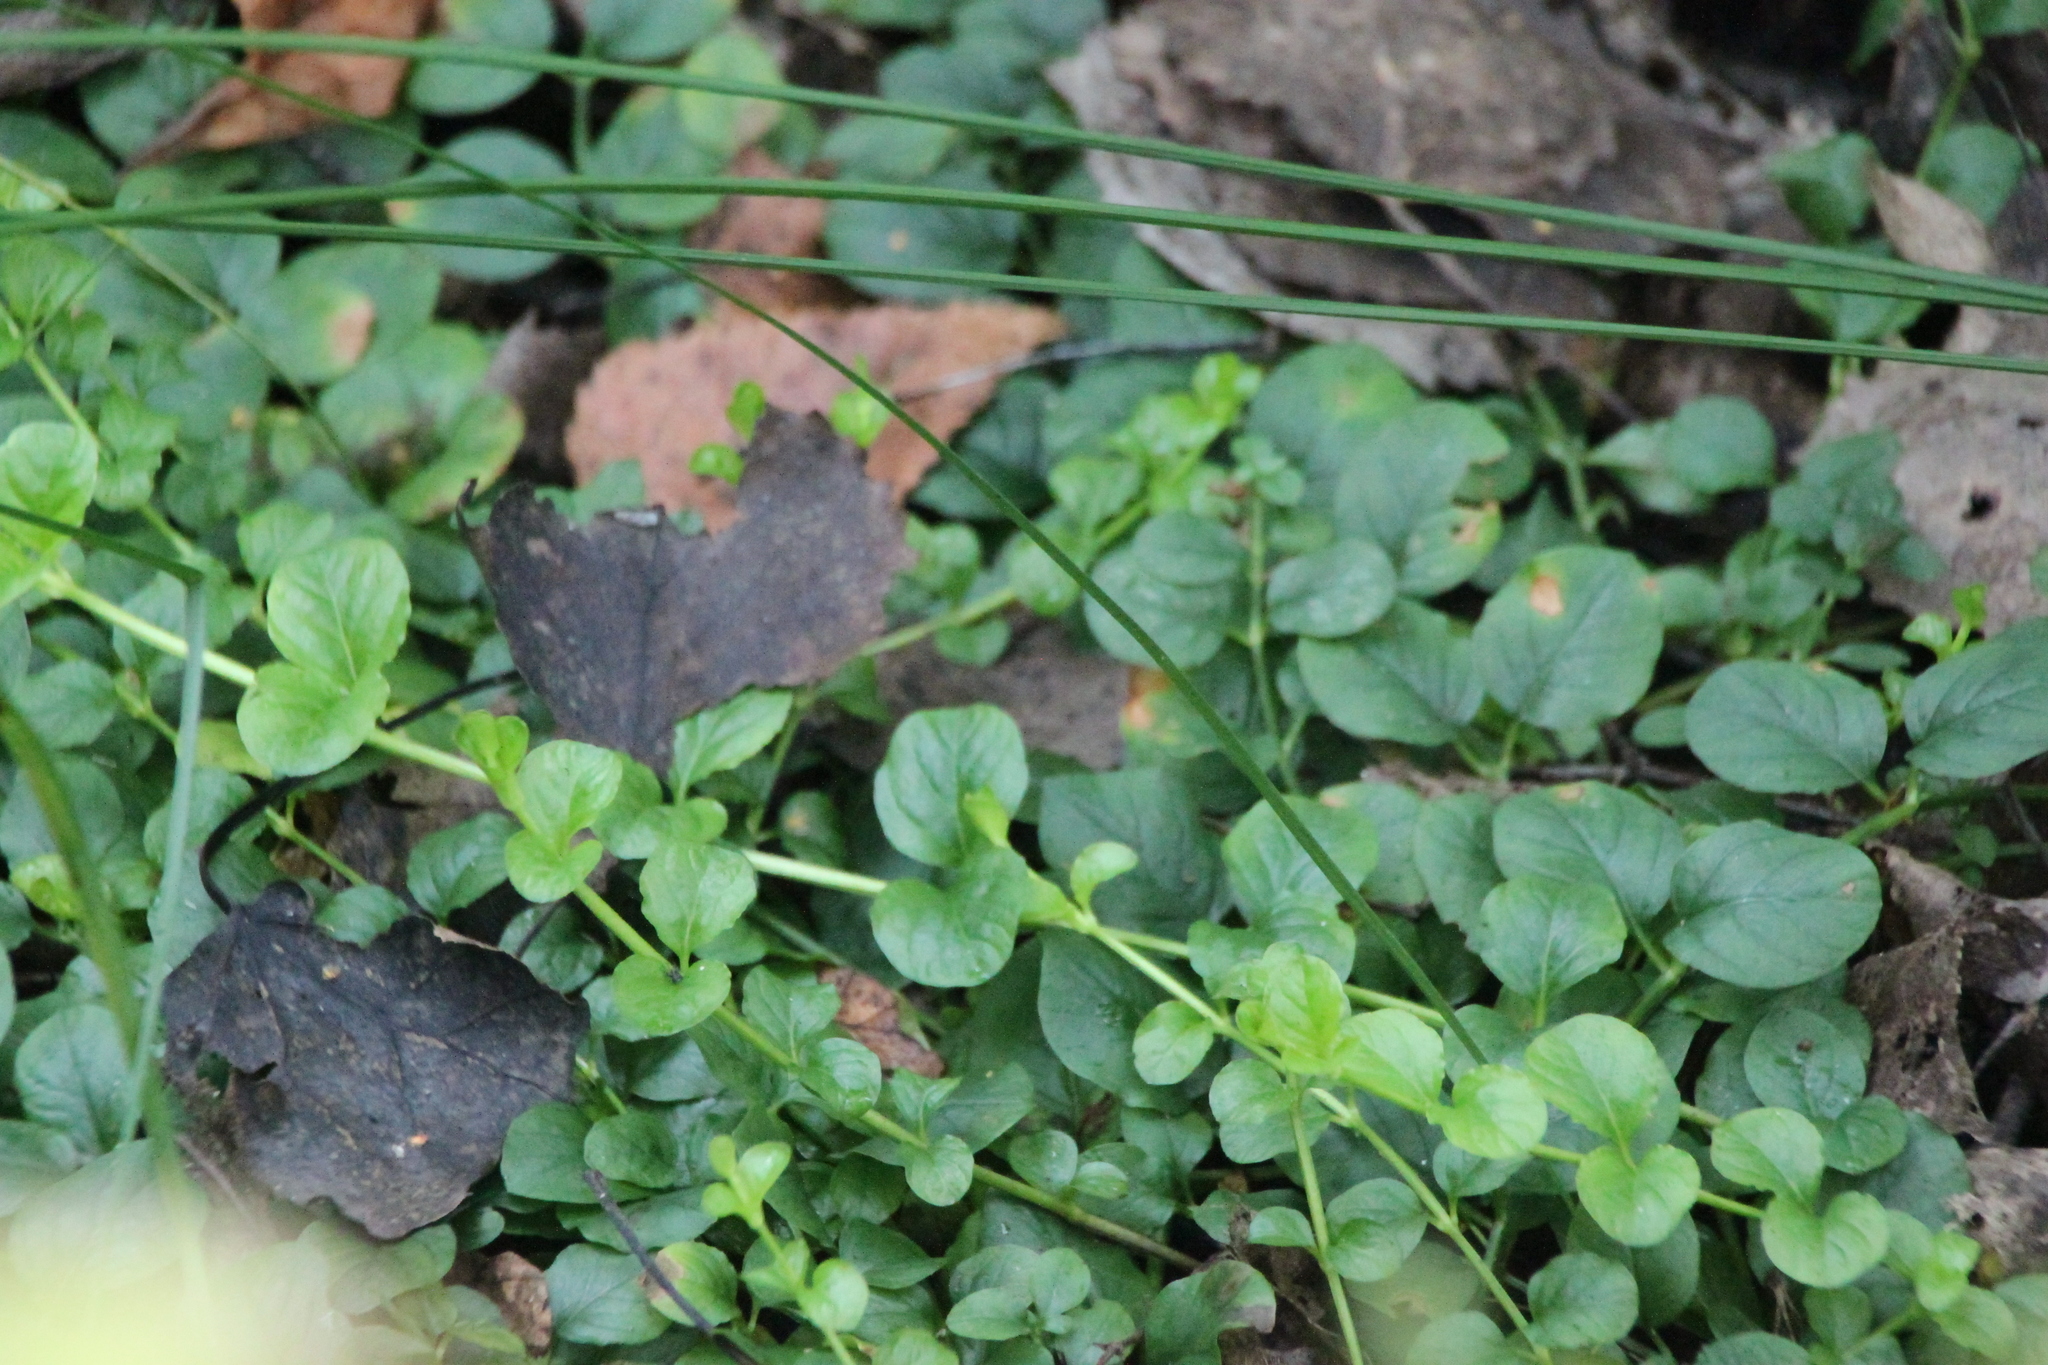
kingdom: Plantae
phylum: Tracheophyta
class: Magnoliopsida
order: Ericales
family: Primulaceae
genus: Lysimachia
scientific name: Lysimachia nummularia
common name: Moneywort
